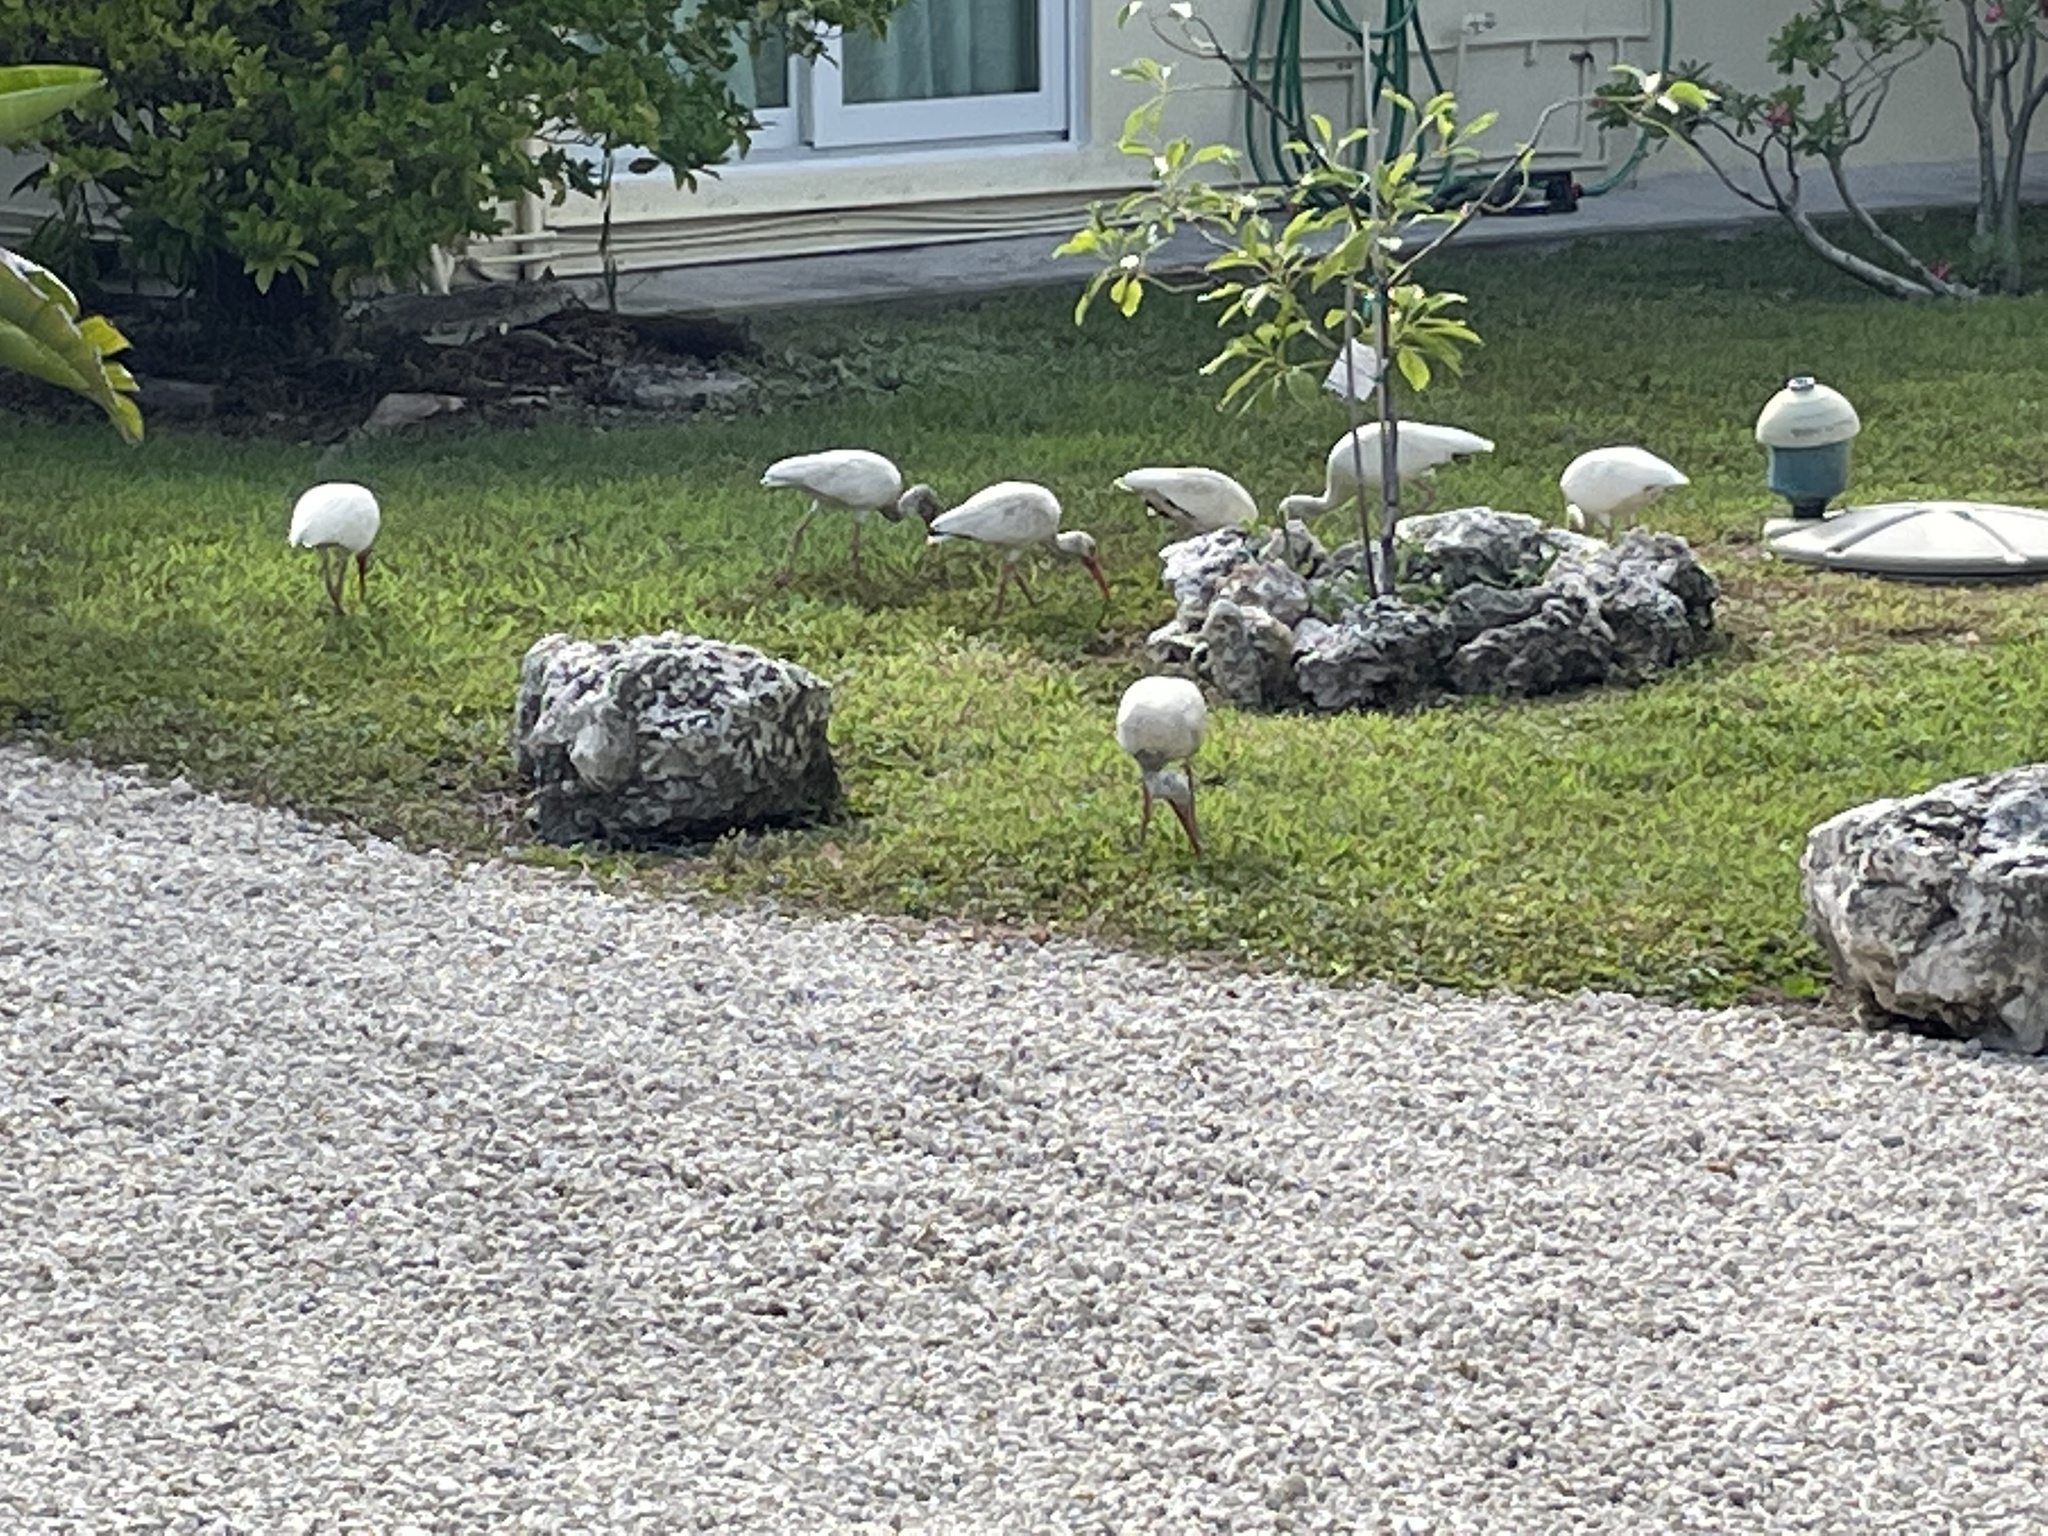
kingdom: Animalia
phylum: Chordata
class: Aves
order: Pelecaniformes
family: Threskiornithidae
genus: Eudocimus
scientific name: Eudocimus albus
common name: White ibis
